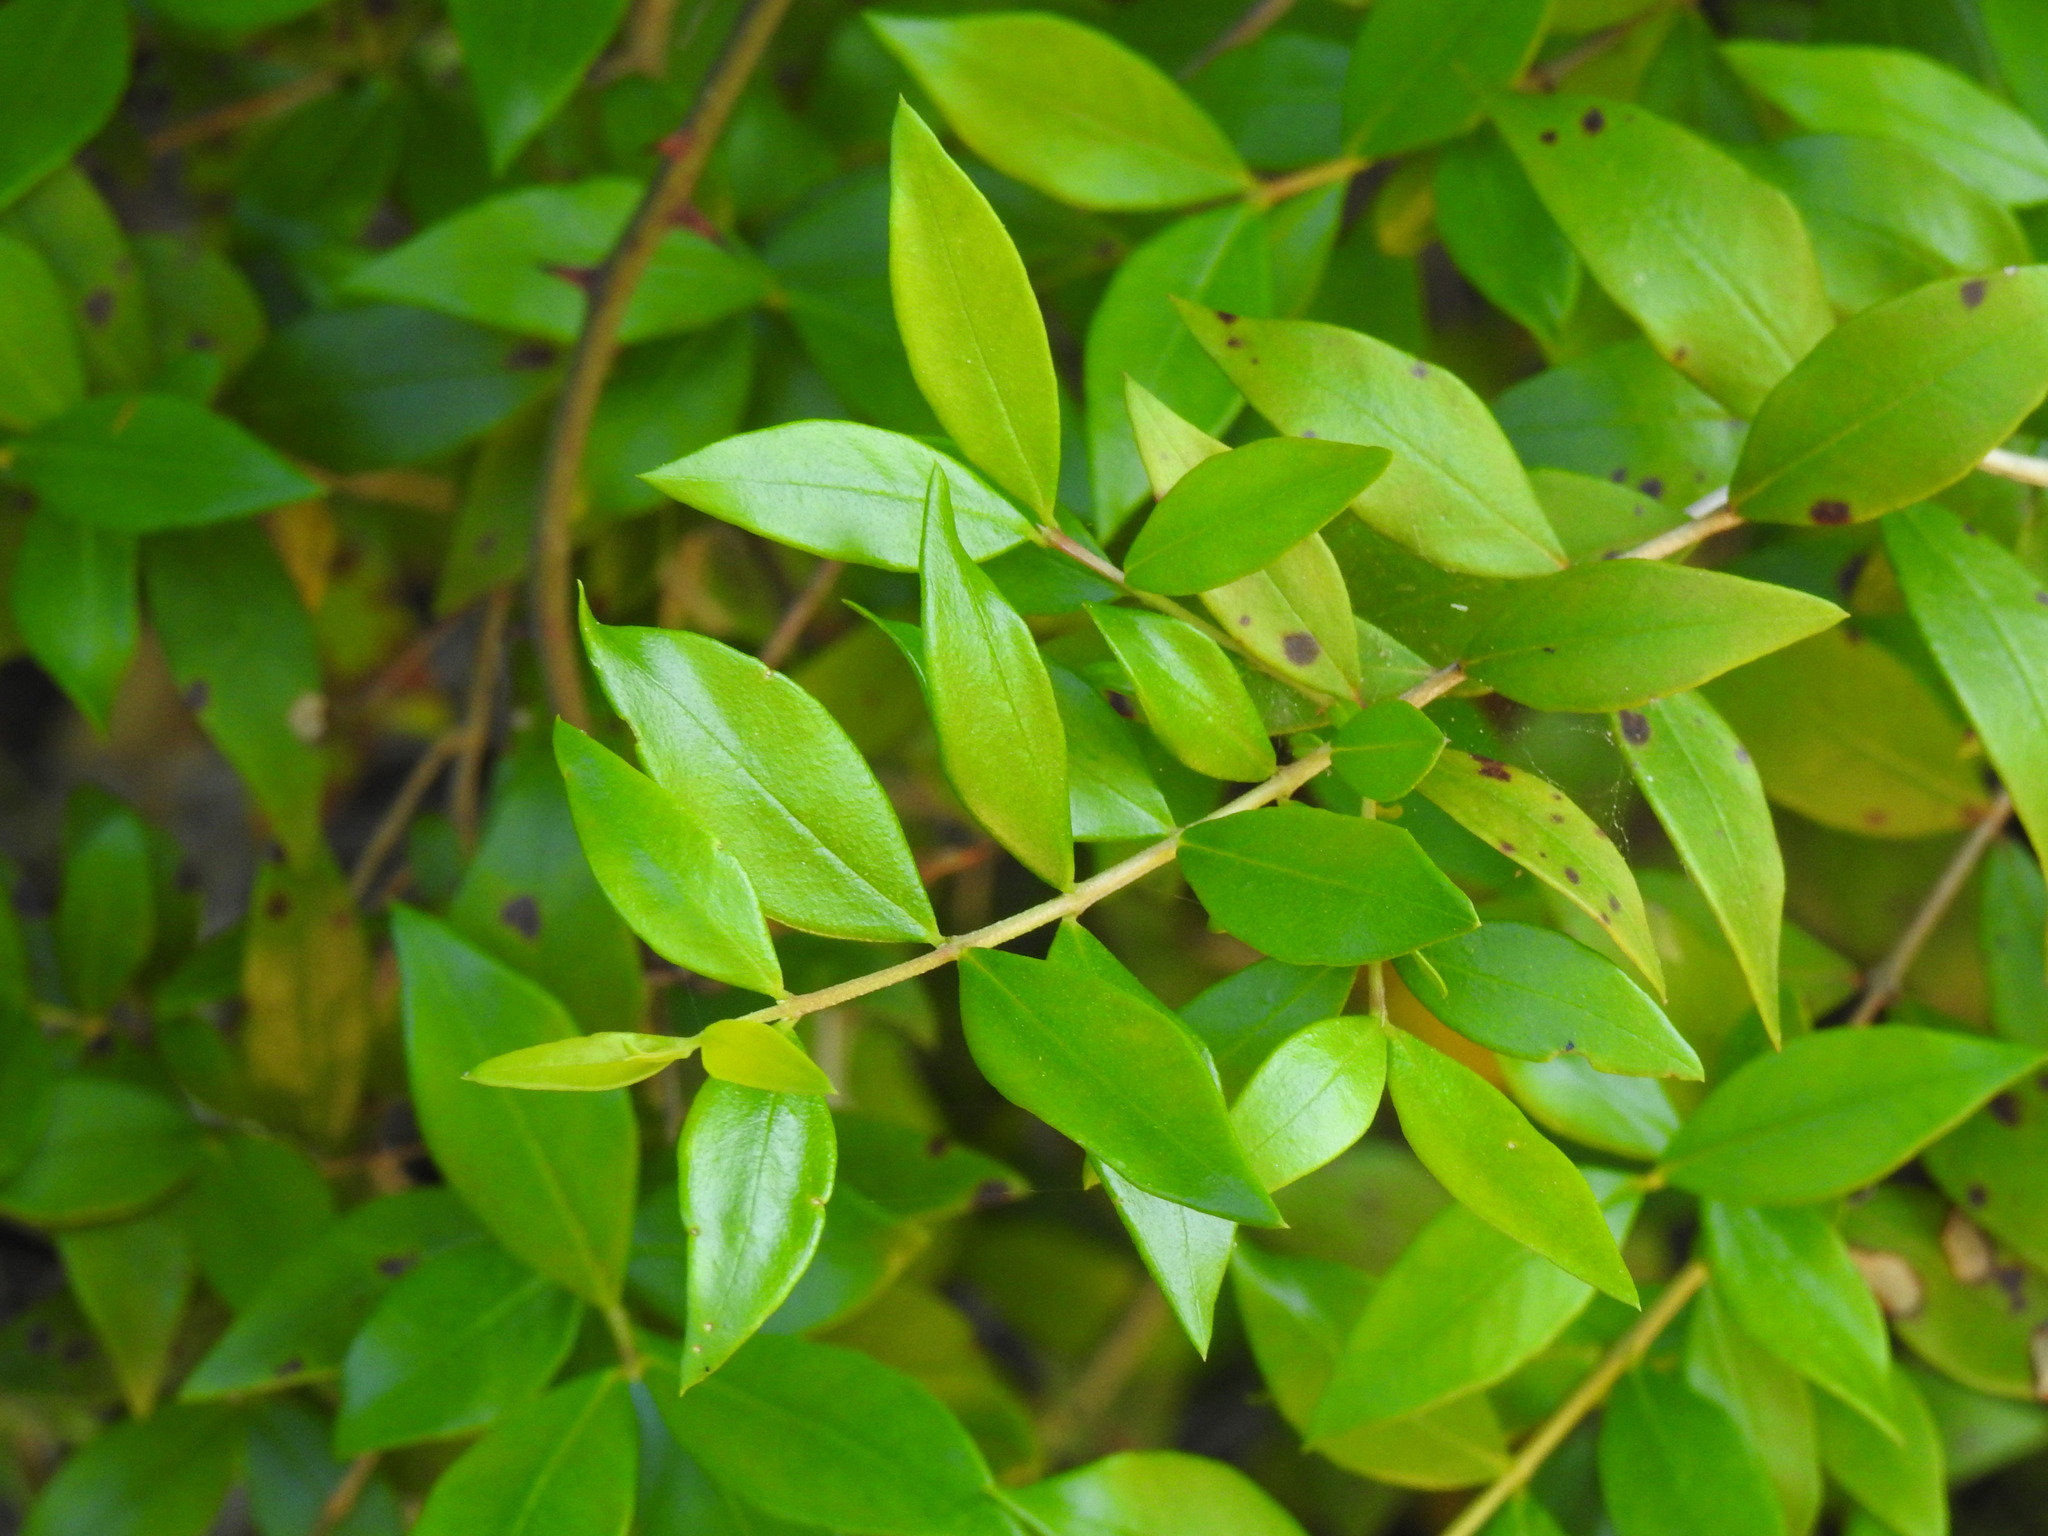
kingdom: Plantae
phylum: Tracheophyta
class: Magnoliopsida
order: Myrtales
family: Myrtaceae
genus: Myrtus
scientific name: Myrtus communis
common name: Myrtle
